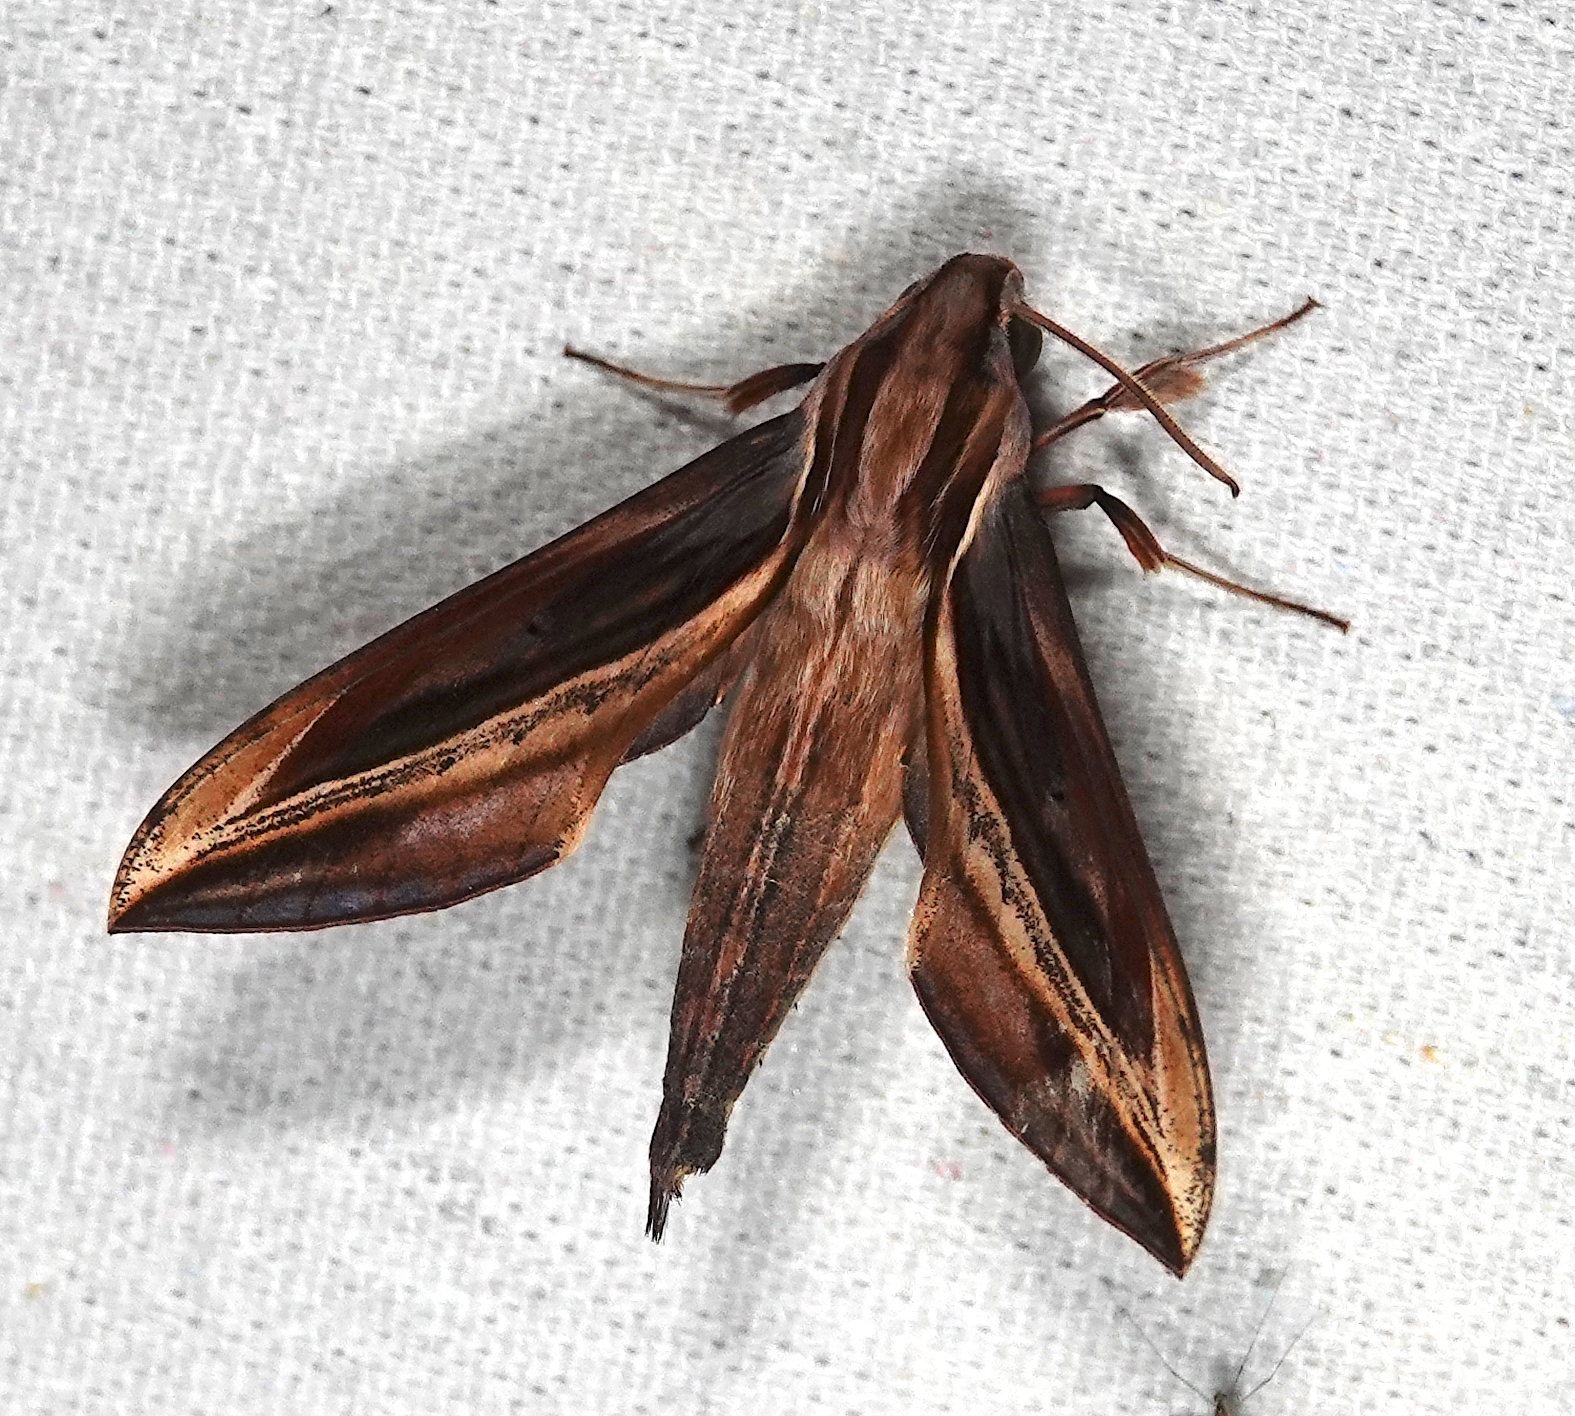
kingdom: Animalia
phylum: Arthropoda
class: Insecta
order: Lepidoptera
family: Sphingidae
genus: Xylophanes
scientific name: Xylophanes pyrrhus
